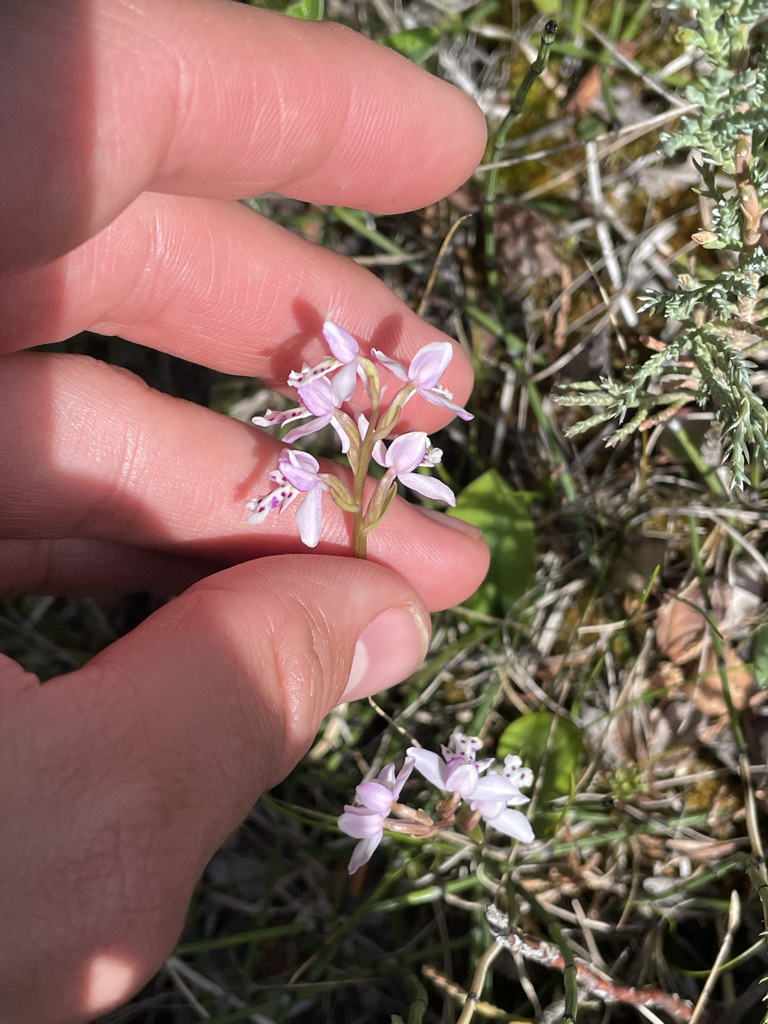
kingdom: Plantae
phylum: Tracheophyta
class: Liliopsida
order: Asparagales
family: Orchidaceae
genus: Galearis
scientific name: Galearis rotundifolia
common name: One-leaved orchis
